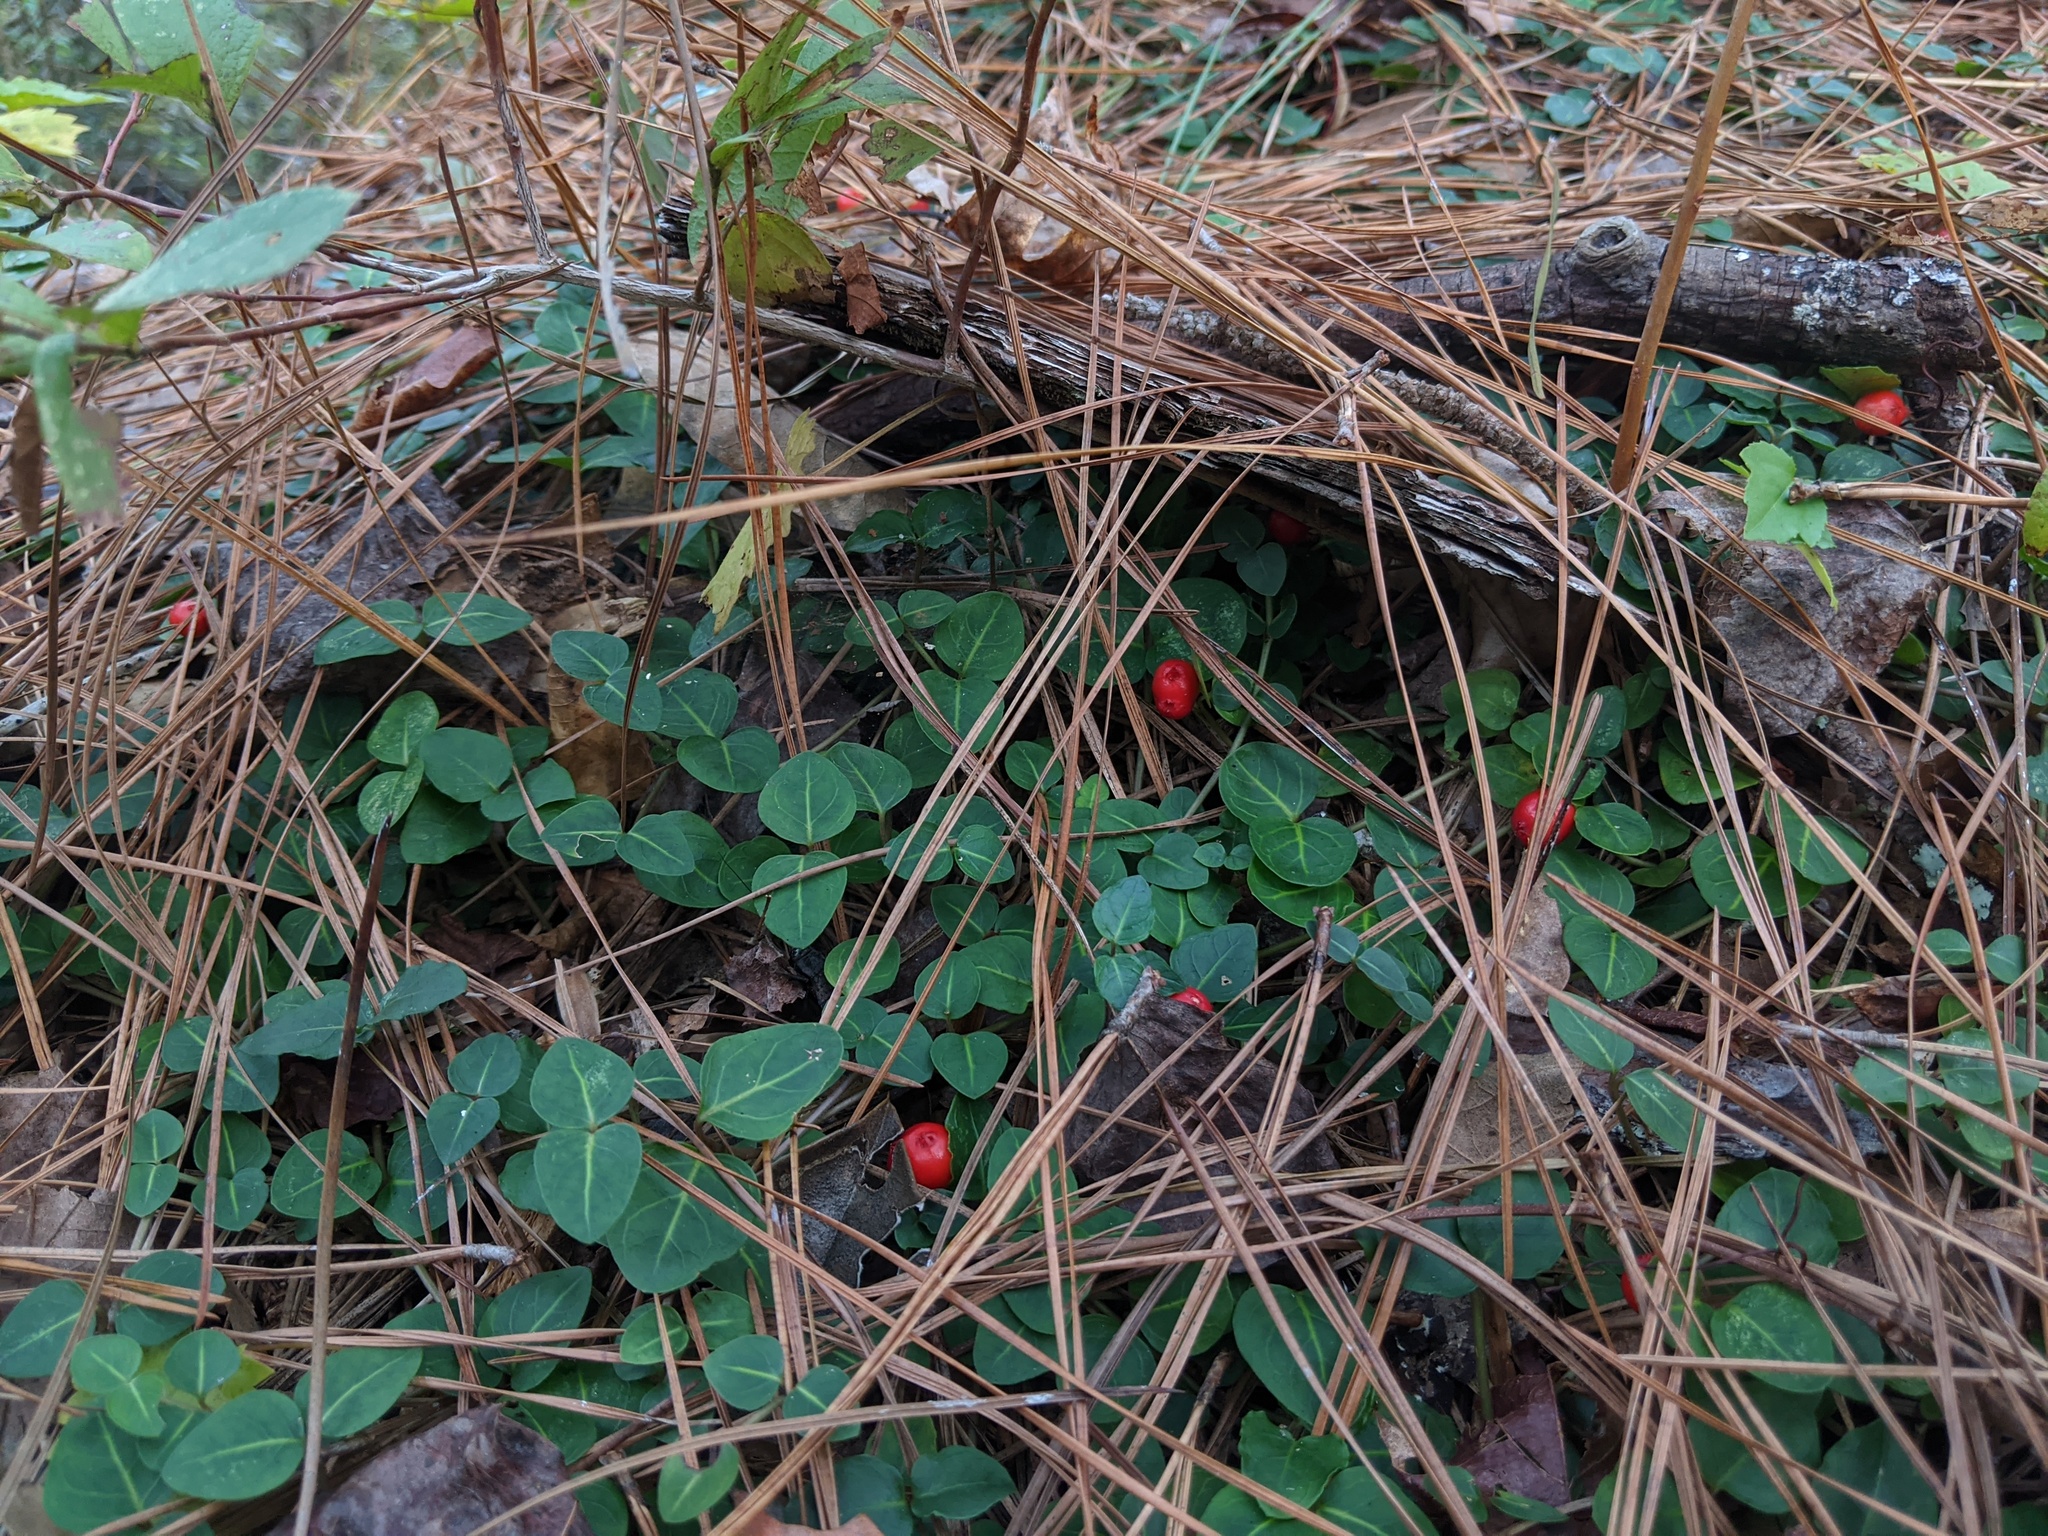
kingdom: Plantae
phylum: Tracheophyta
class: Magnoliopsida
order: Gentianales
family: Rubiaceae
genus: Mitchella
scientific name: Mitchella repens
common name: Partridge-berry
